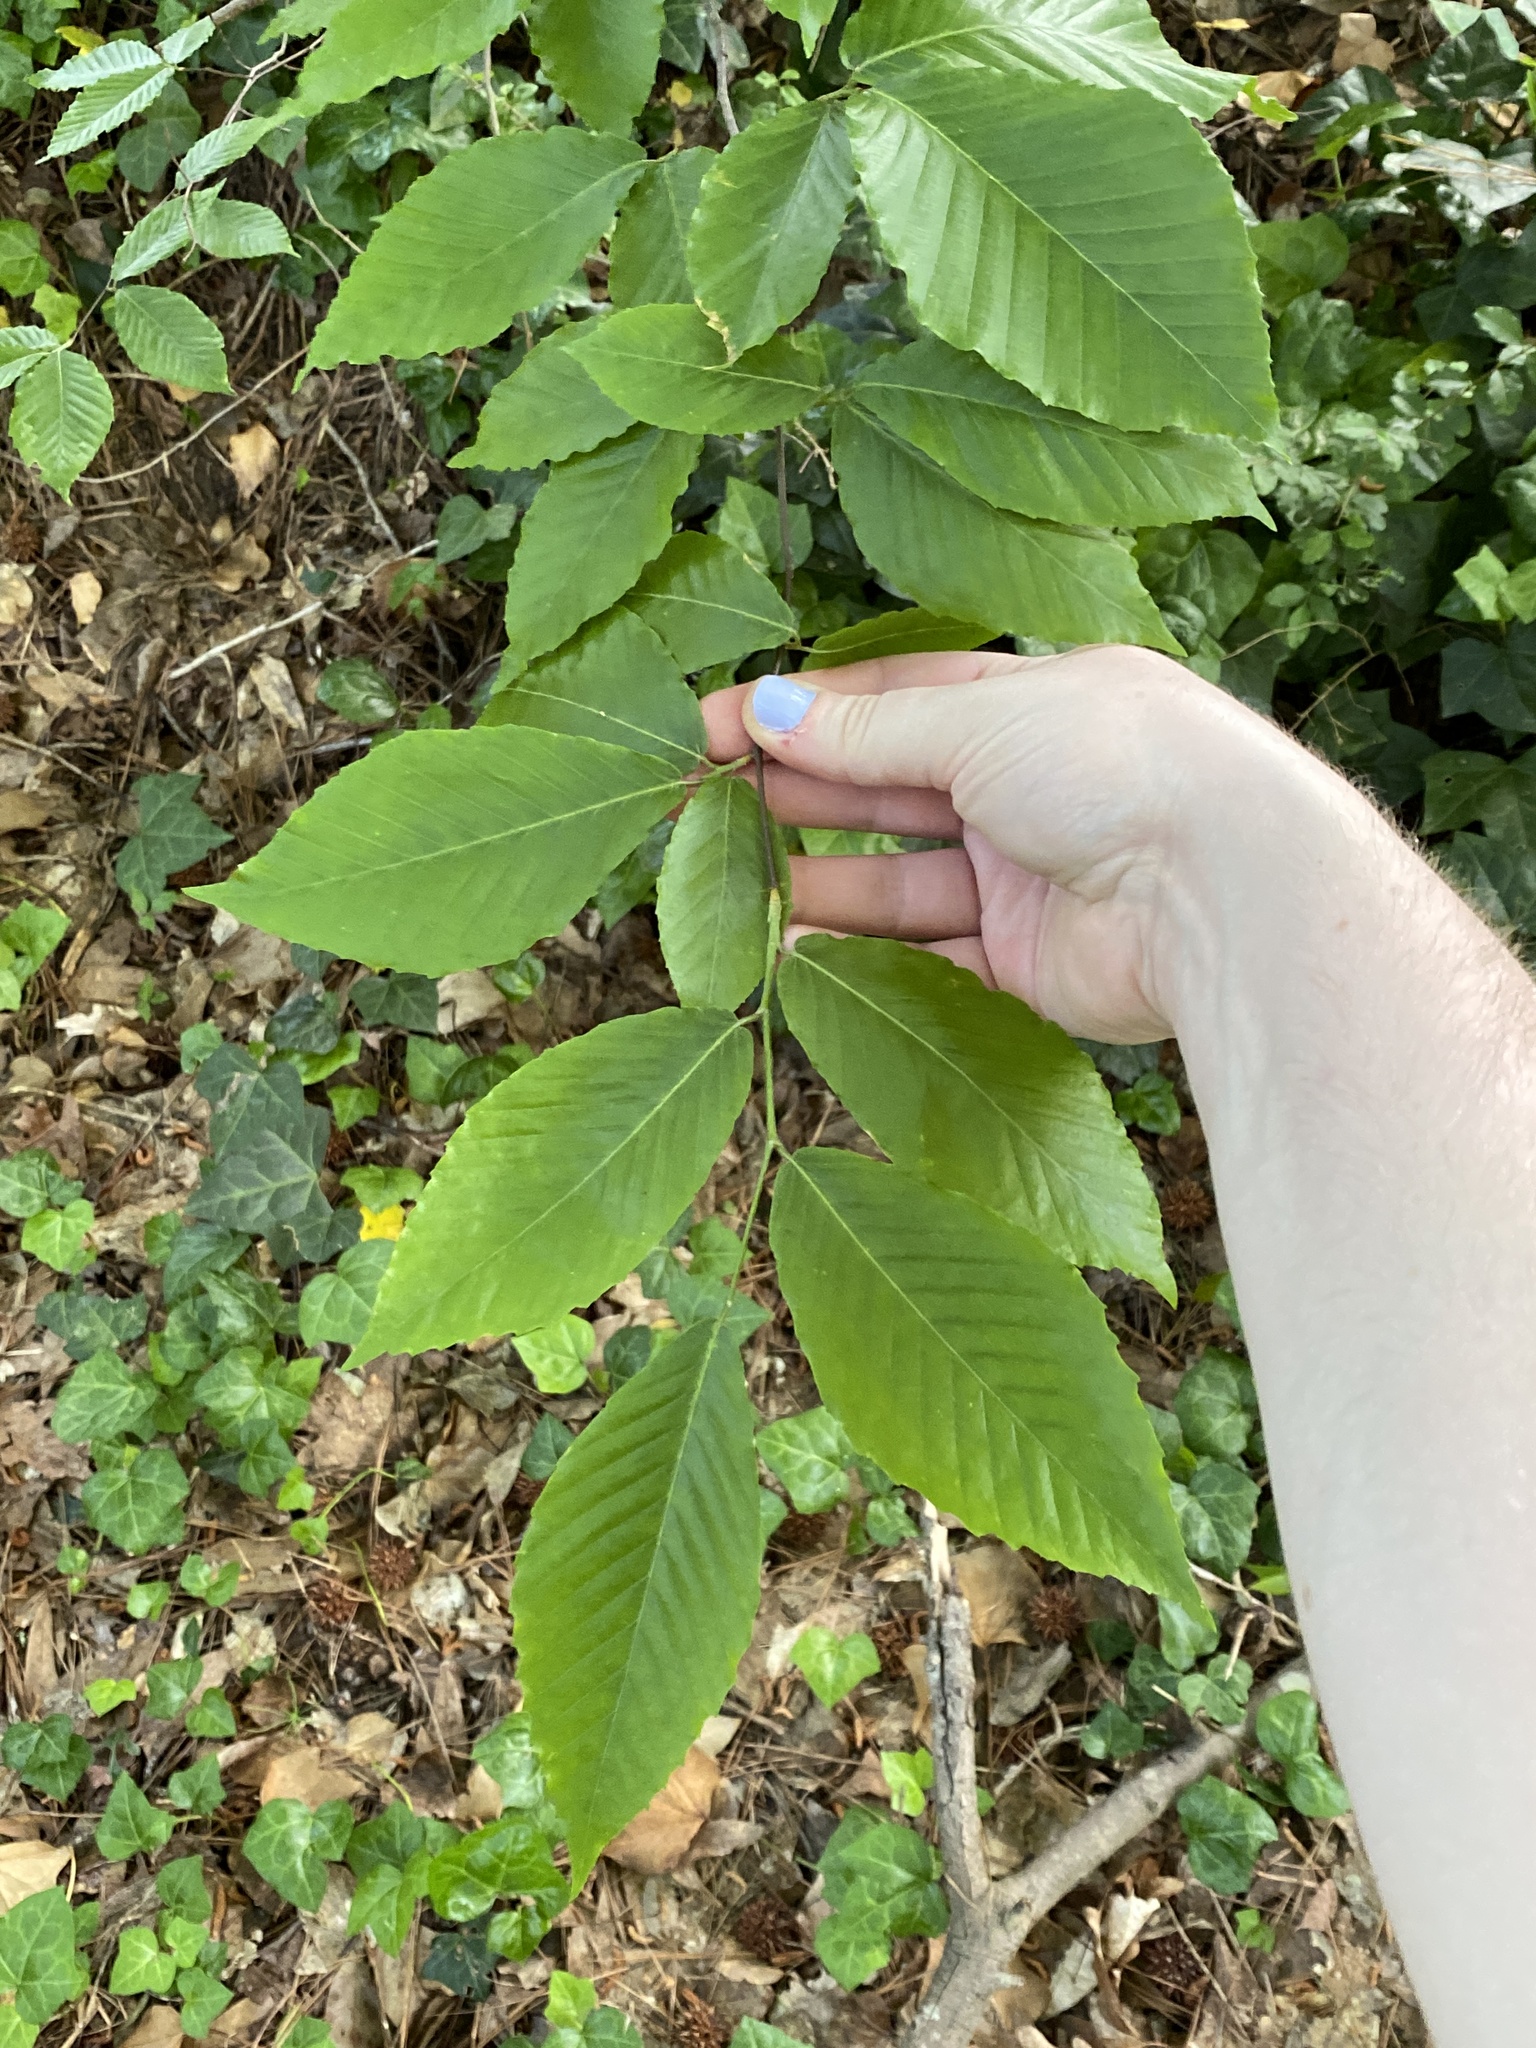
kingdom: Plantae
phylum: Tracheophyta
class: Magnoliopsida
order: Fagales
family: Fagaceae
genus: Fagus
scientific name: Fagus grandifolia
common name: American beech
